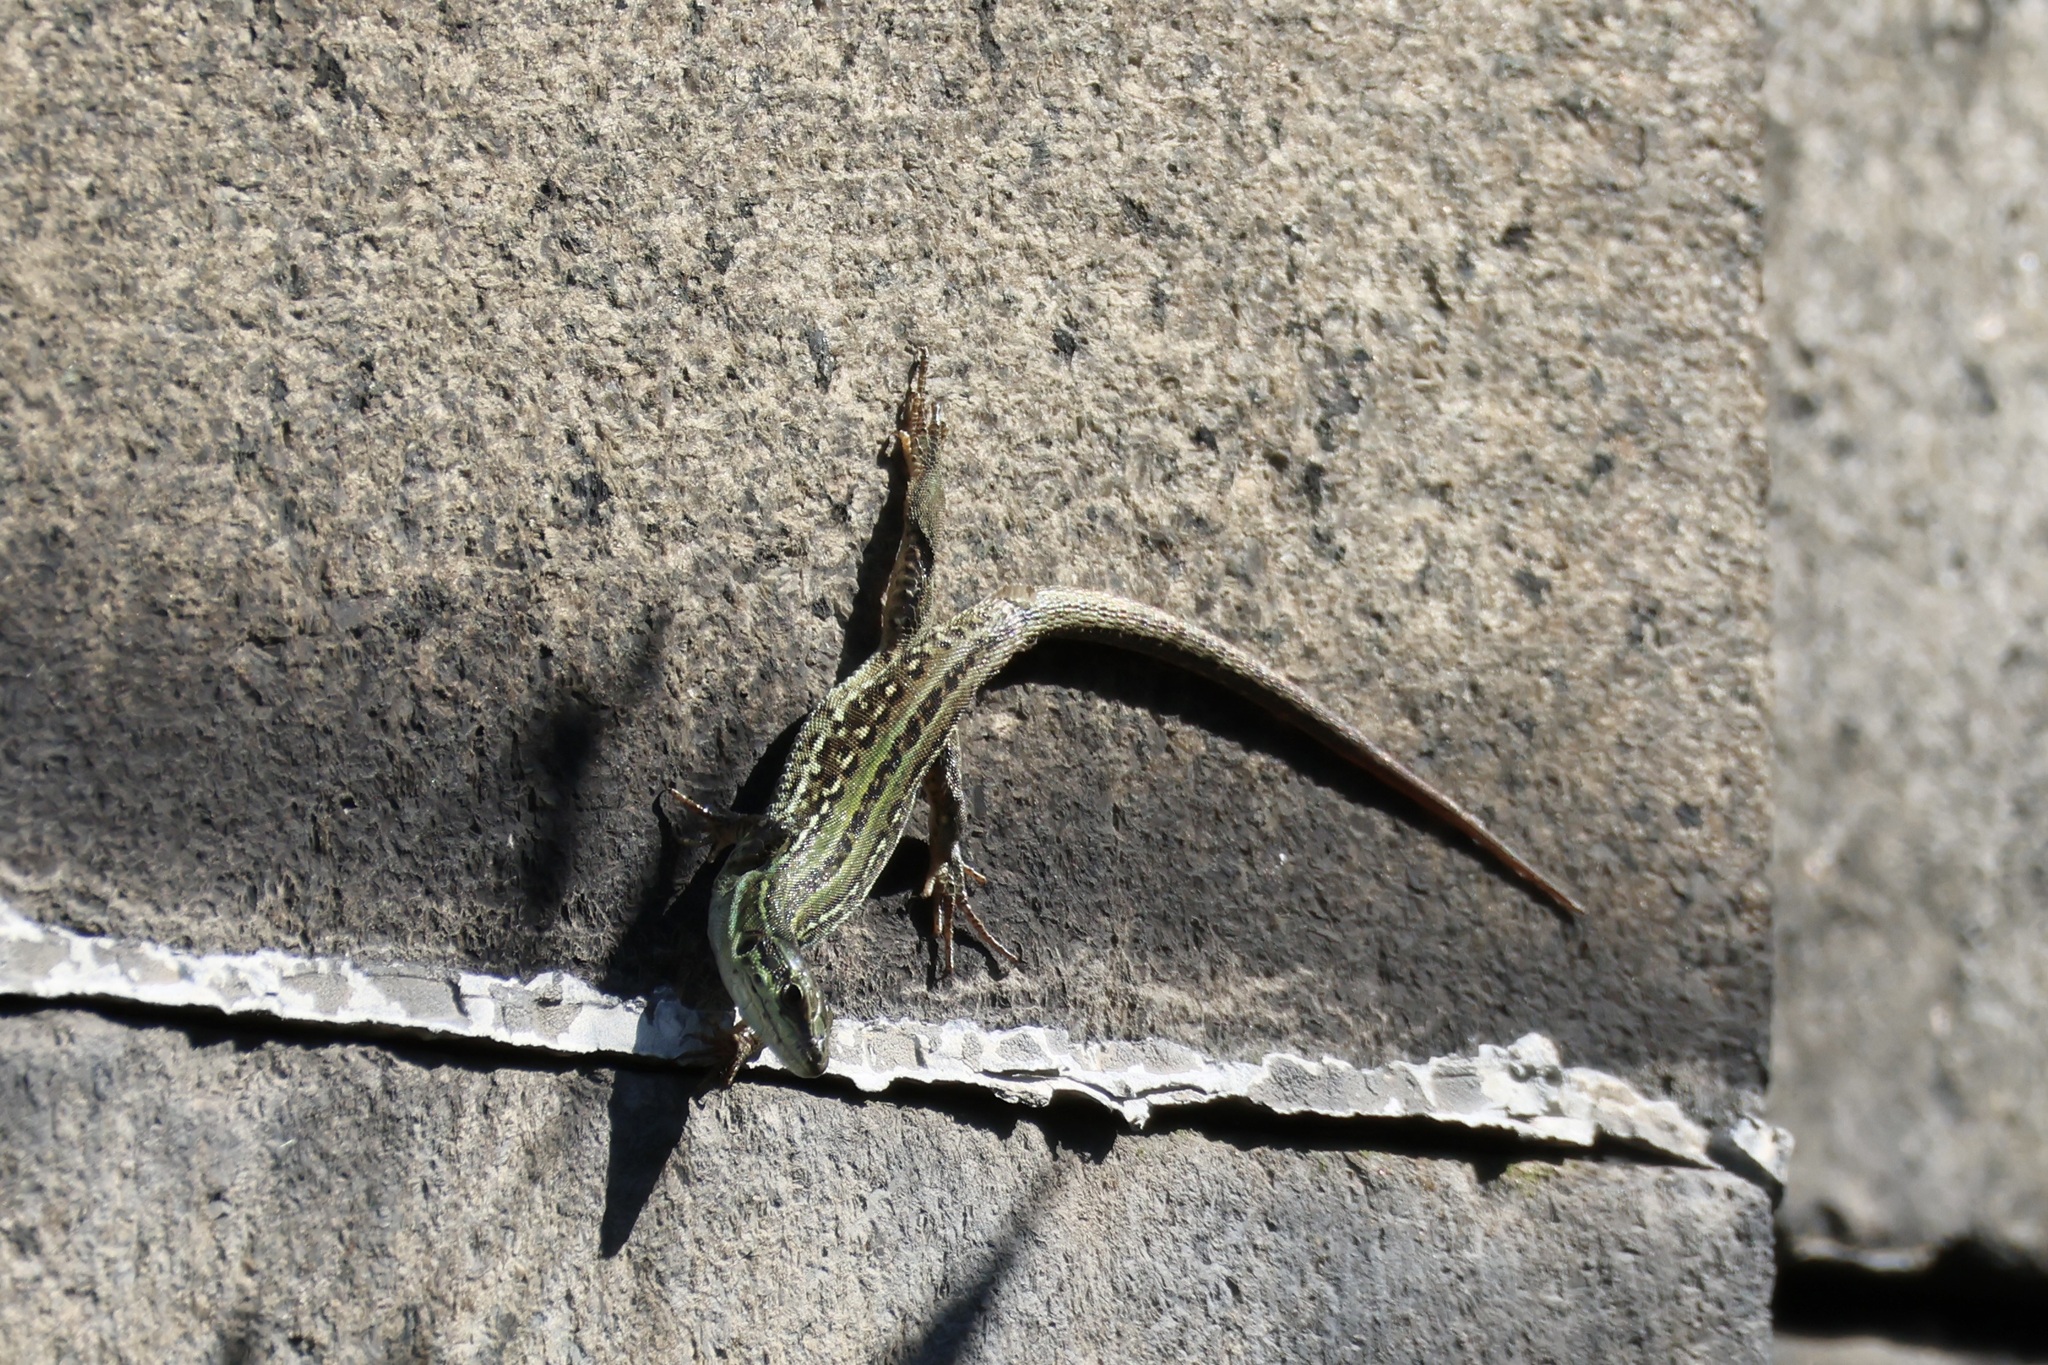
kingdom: Animalia
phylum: Chordata
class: Squamata
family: Lacertidae
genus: Podarcis
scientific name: Podarcis siculus
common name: Italian wall lizard
